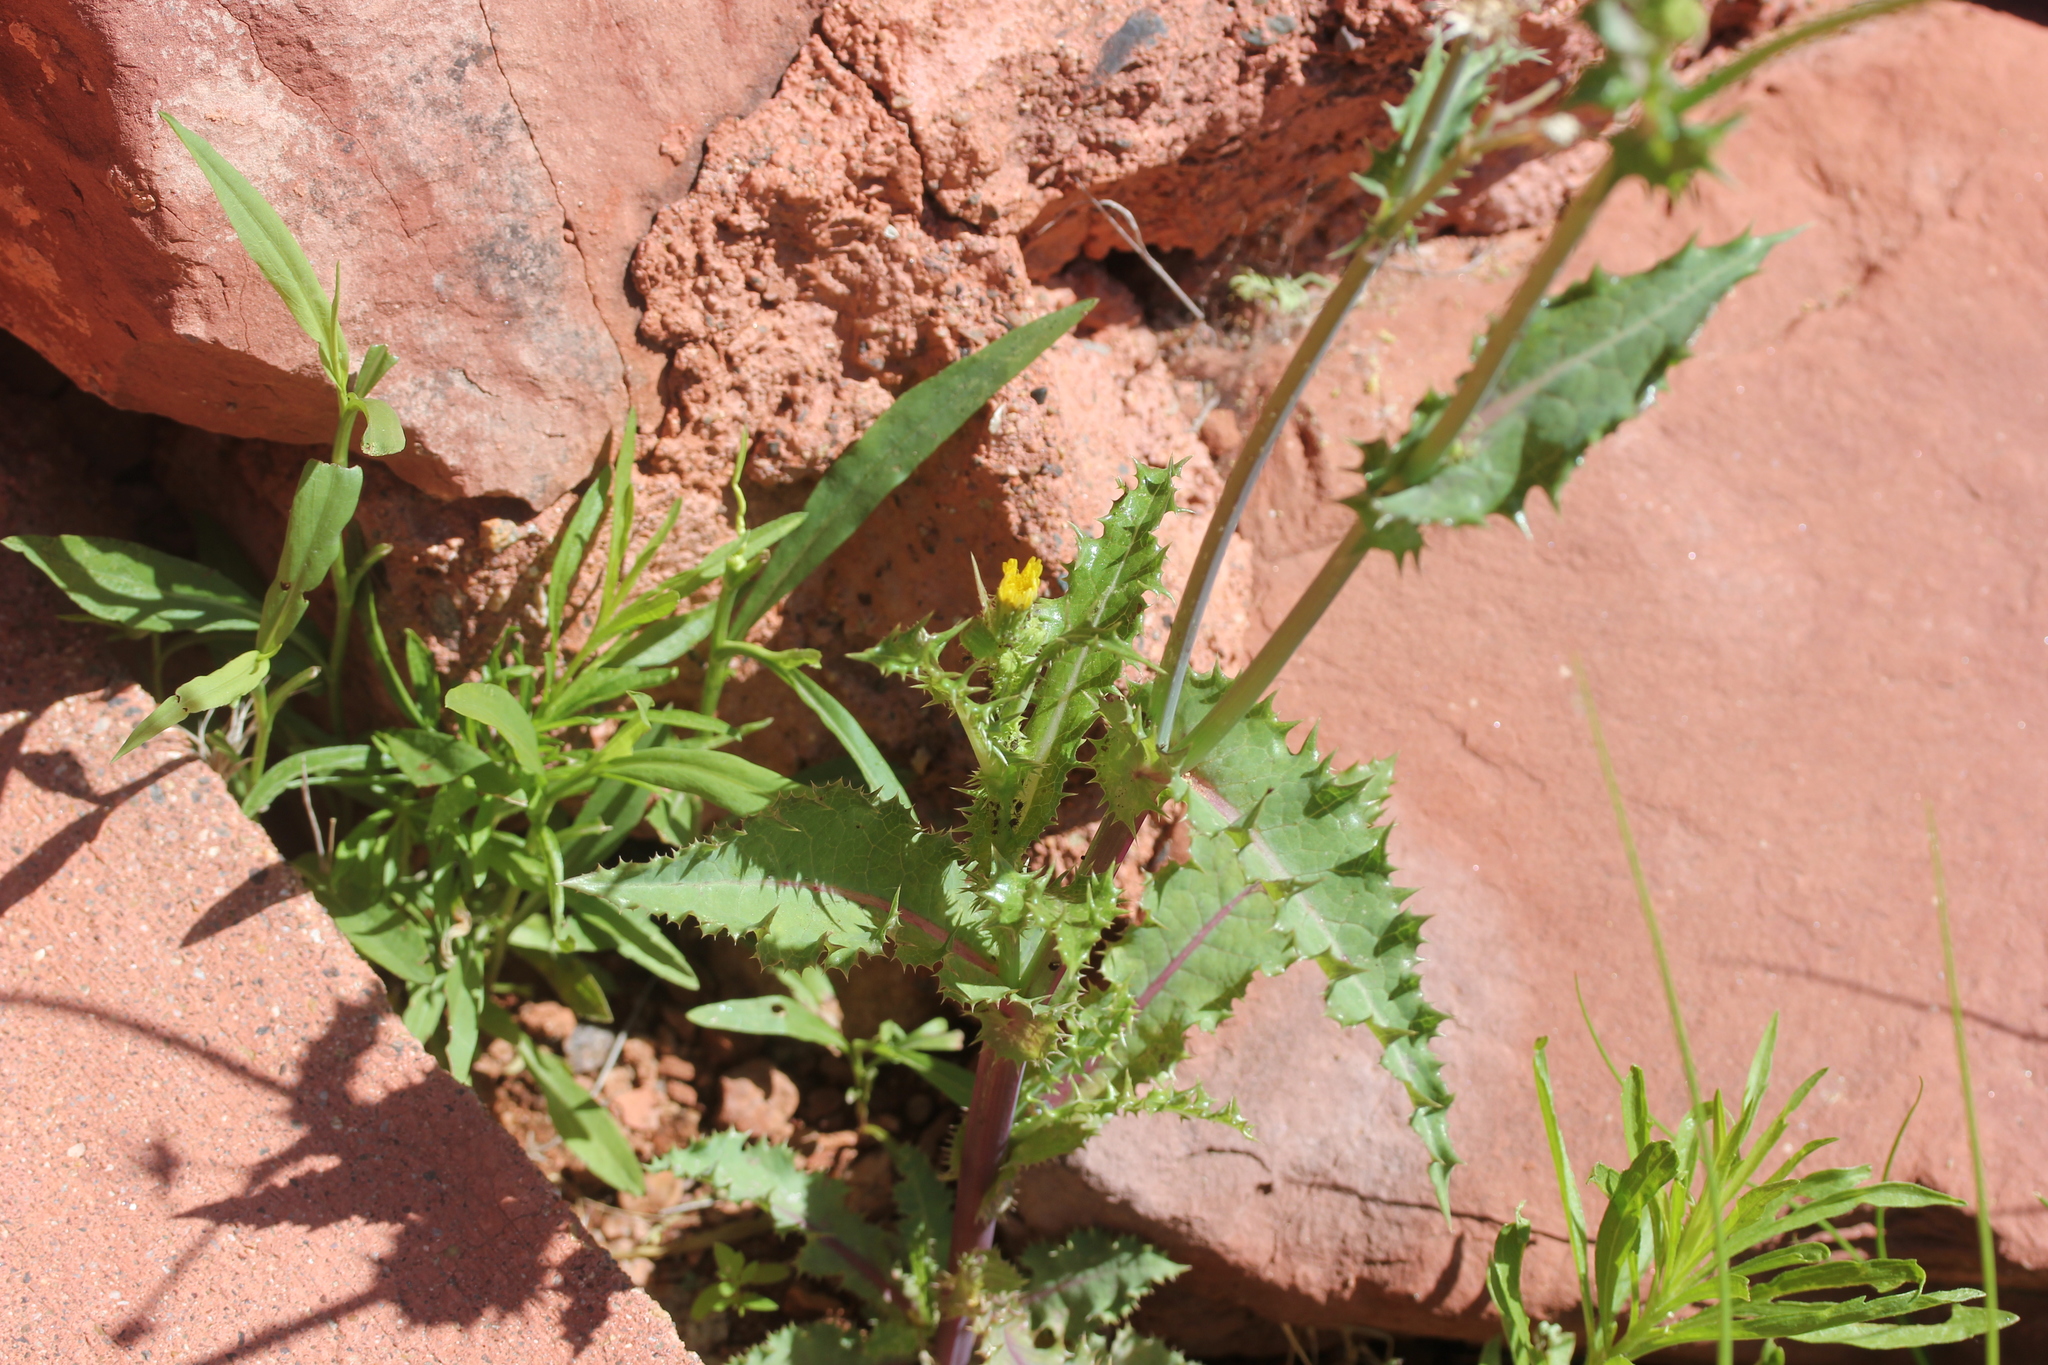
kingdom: Plantae
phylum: Tracheophyta
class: Magnoliopsida
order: Asterales
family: Asteraceae
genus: Sonchus
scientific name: Sonchus asper
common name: Prickly sow-thistle
